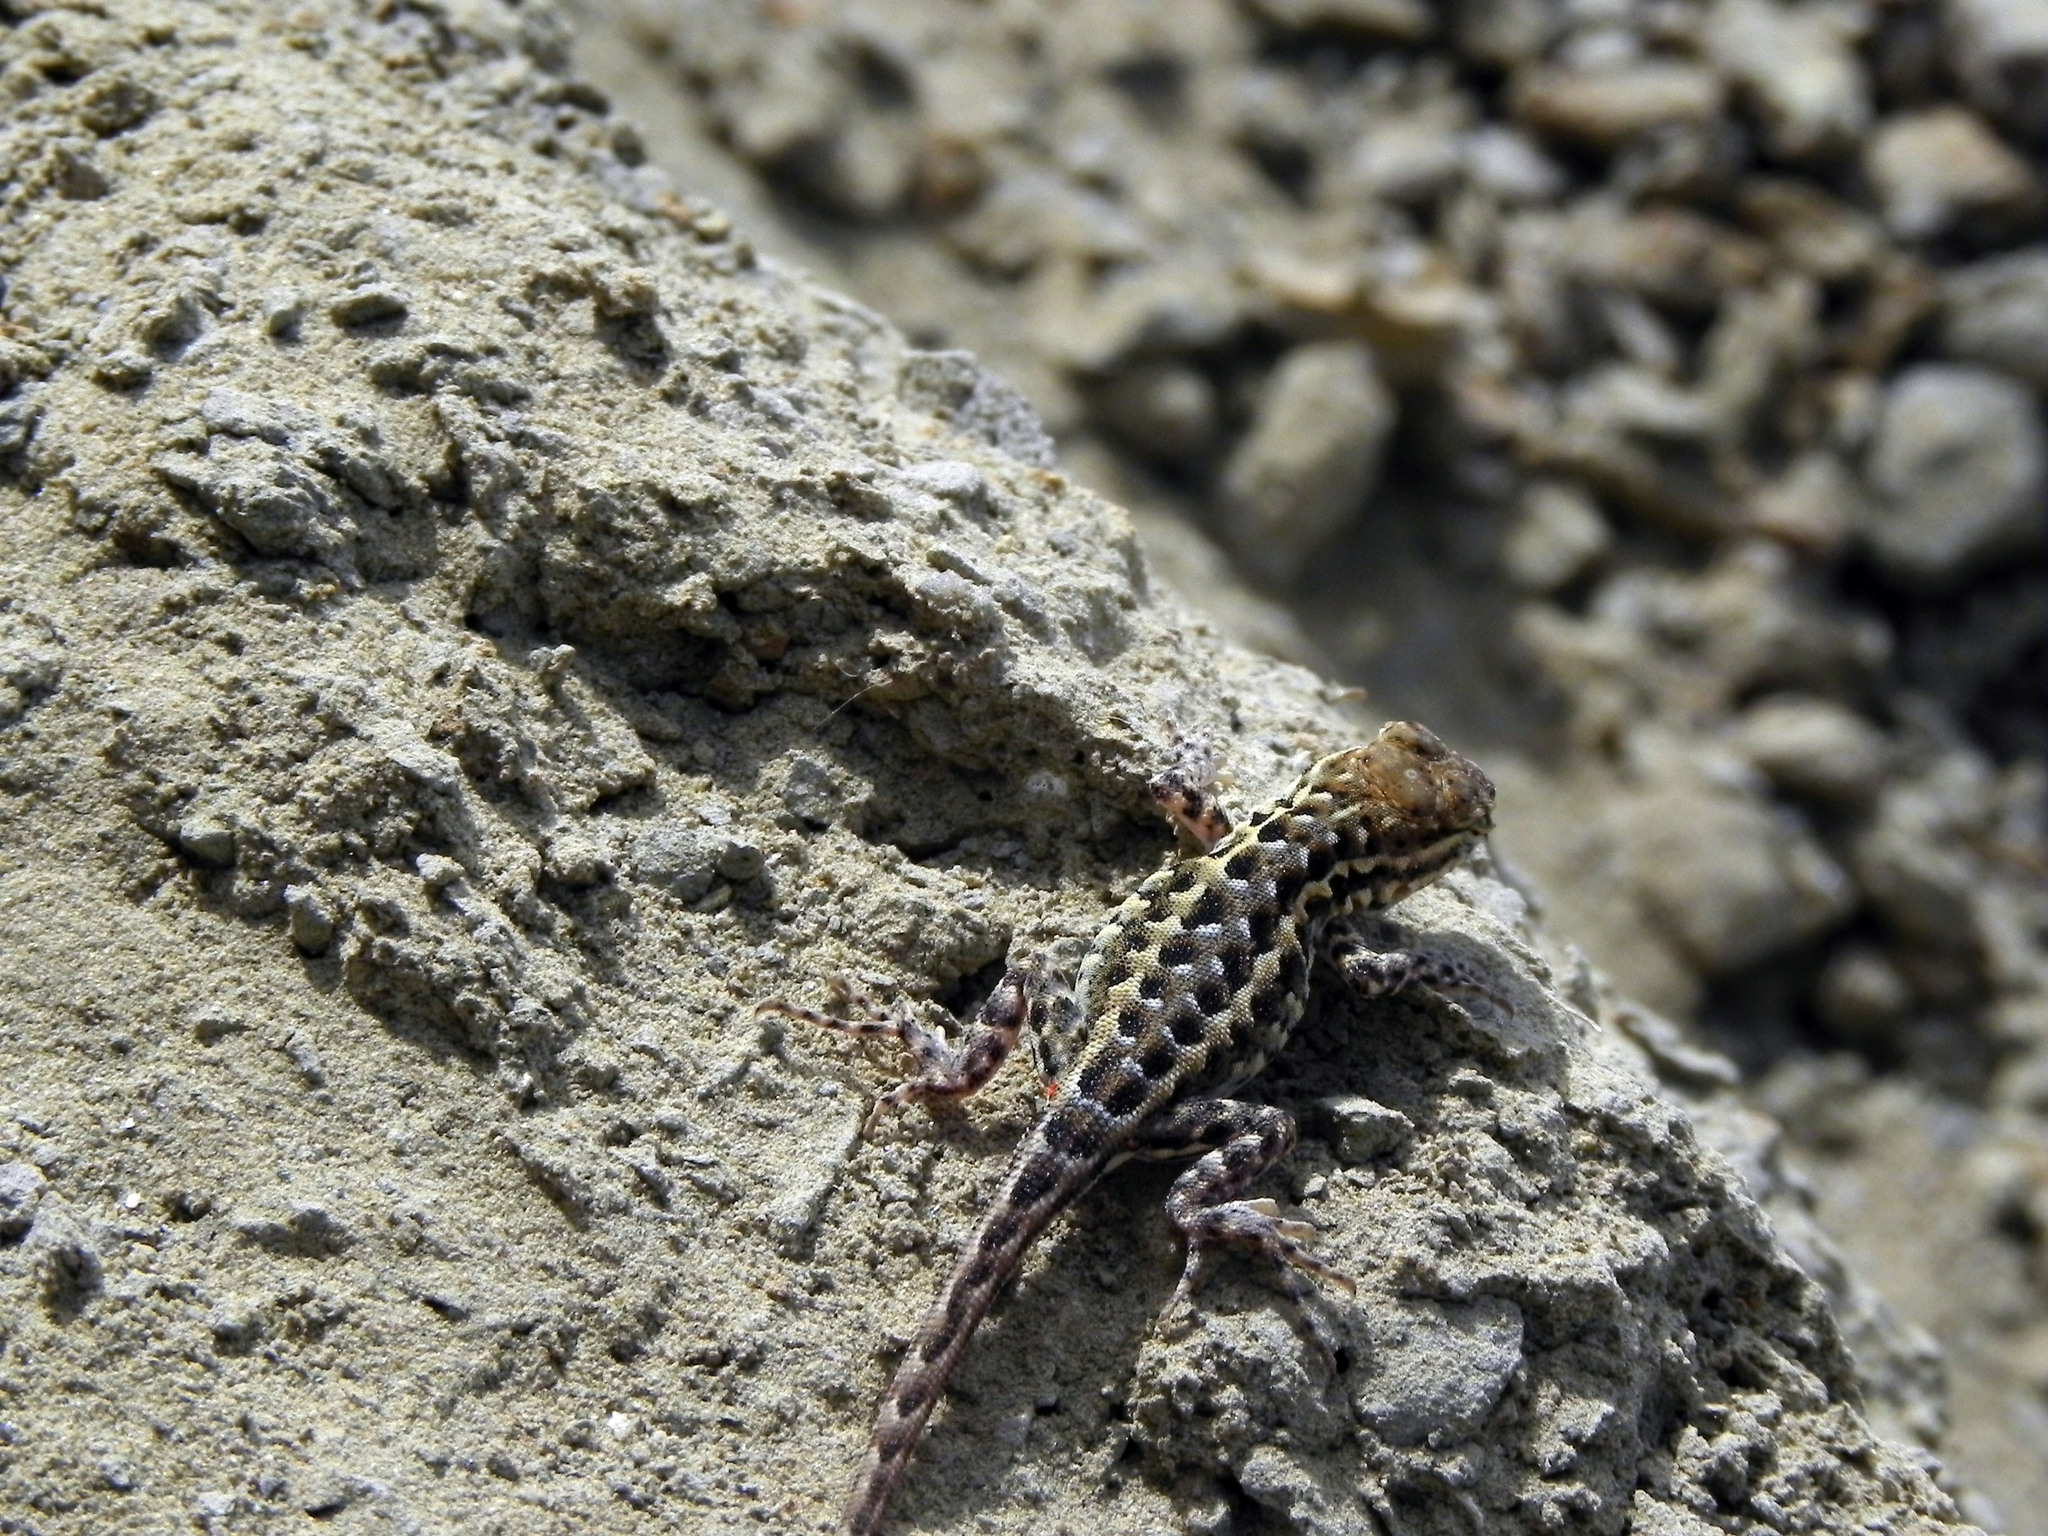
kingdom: Animalia
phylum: Chordata
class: Squamata
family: Phrynosomatidae
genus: Uta
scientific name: Uta stansburiana
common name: Side-blotched lizard
